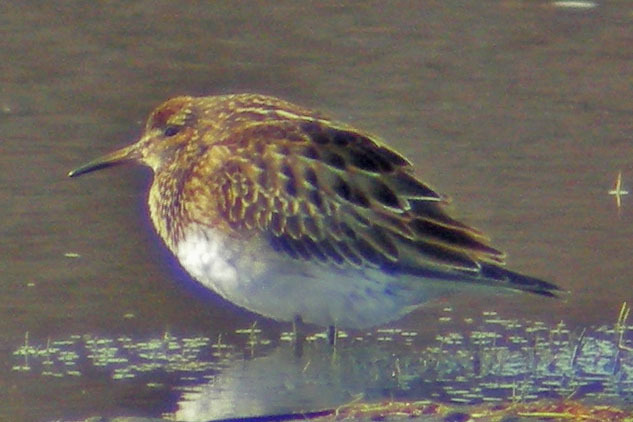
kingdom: Animalia
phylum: Chordata
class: Aves
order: Charadriiformes
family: Scolopacidae
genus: Calidris
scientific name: Calidris melanotos
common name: Pectoral sandpiper
